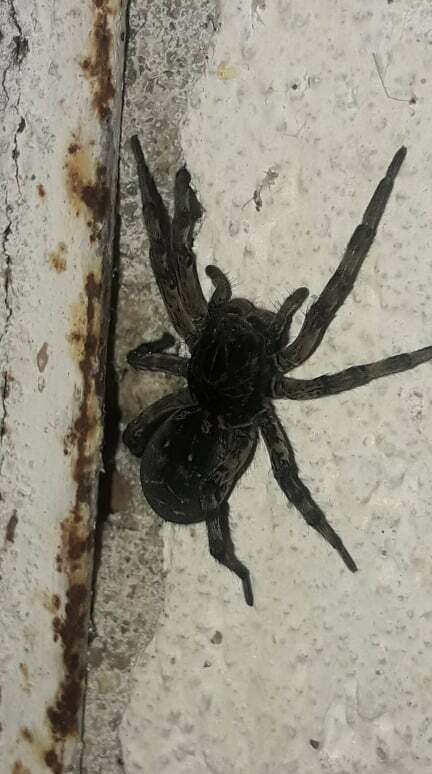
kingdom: Animalia
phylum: Arthropoda
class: Arachnida
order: Araneae
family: Lycosidae
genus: Geolycosa
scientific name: Geolycosa vultuosa
